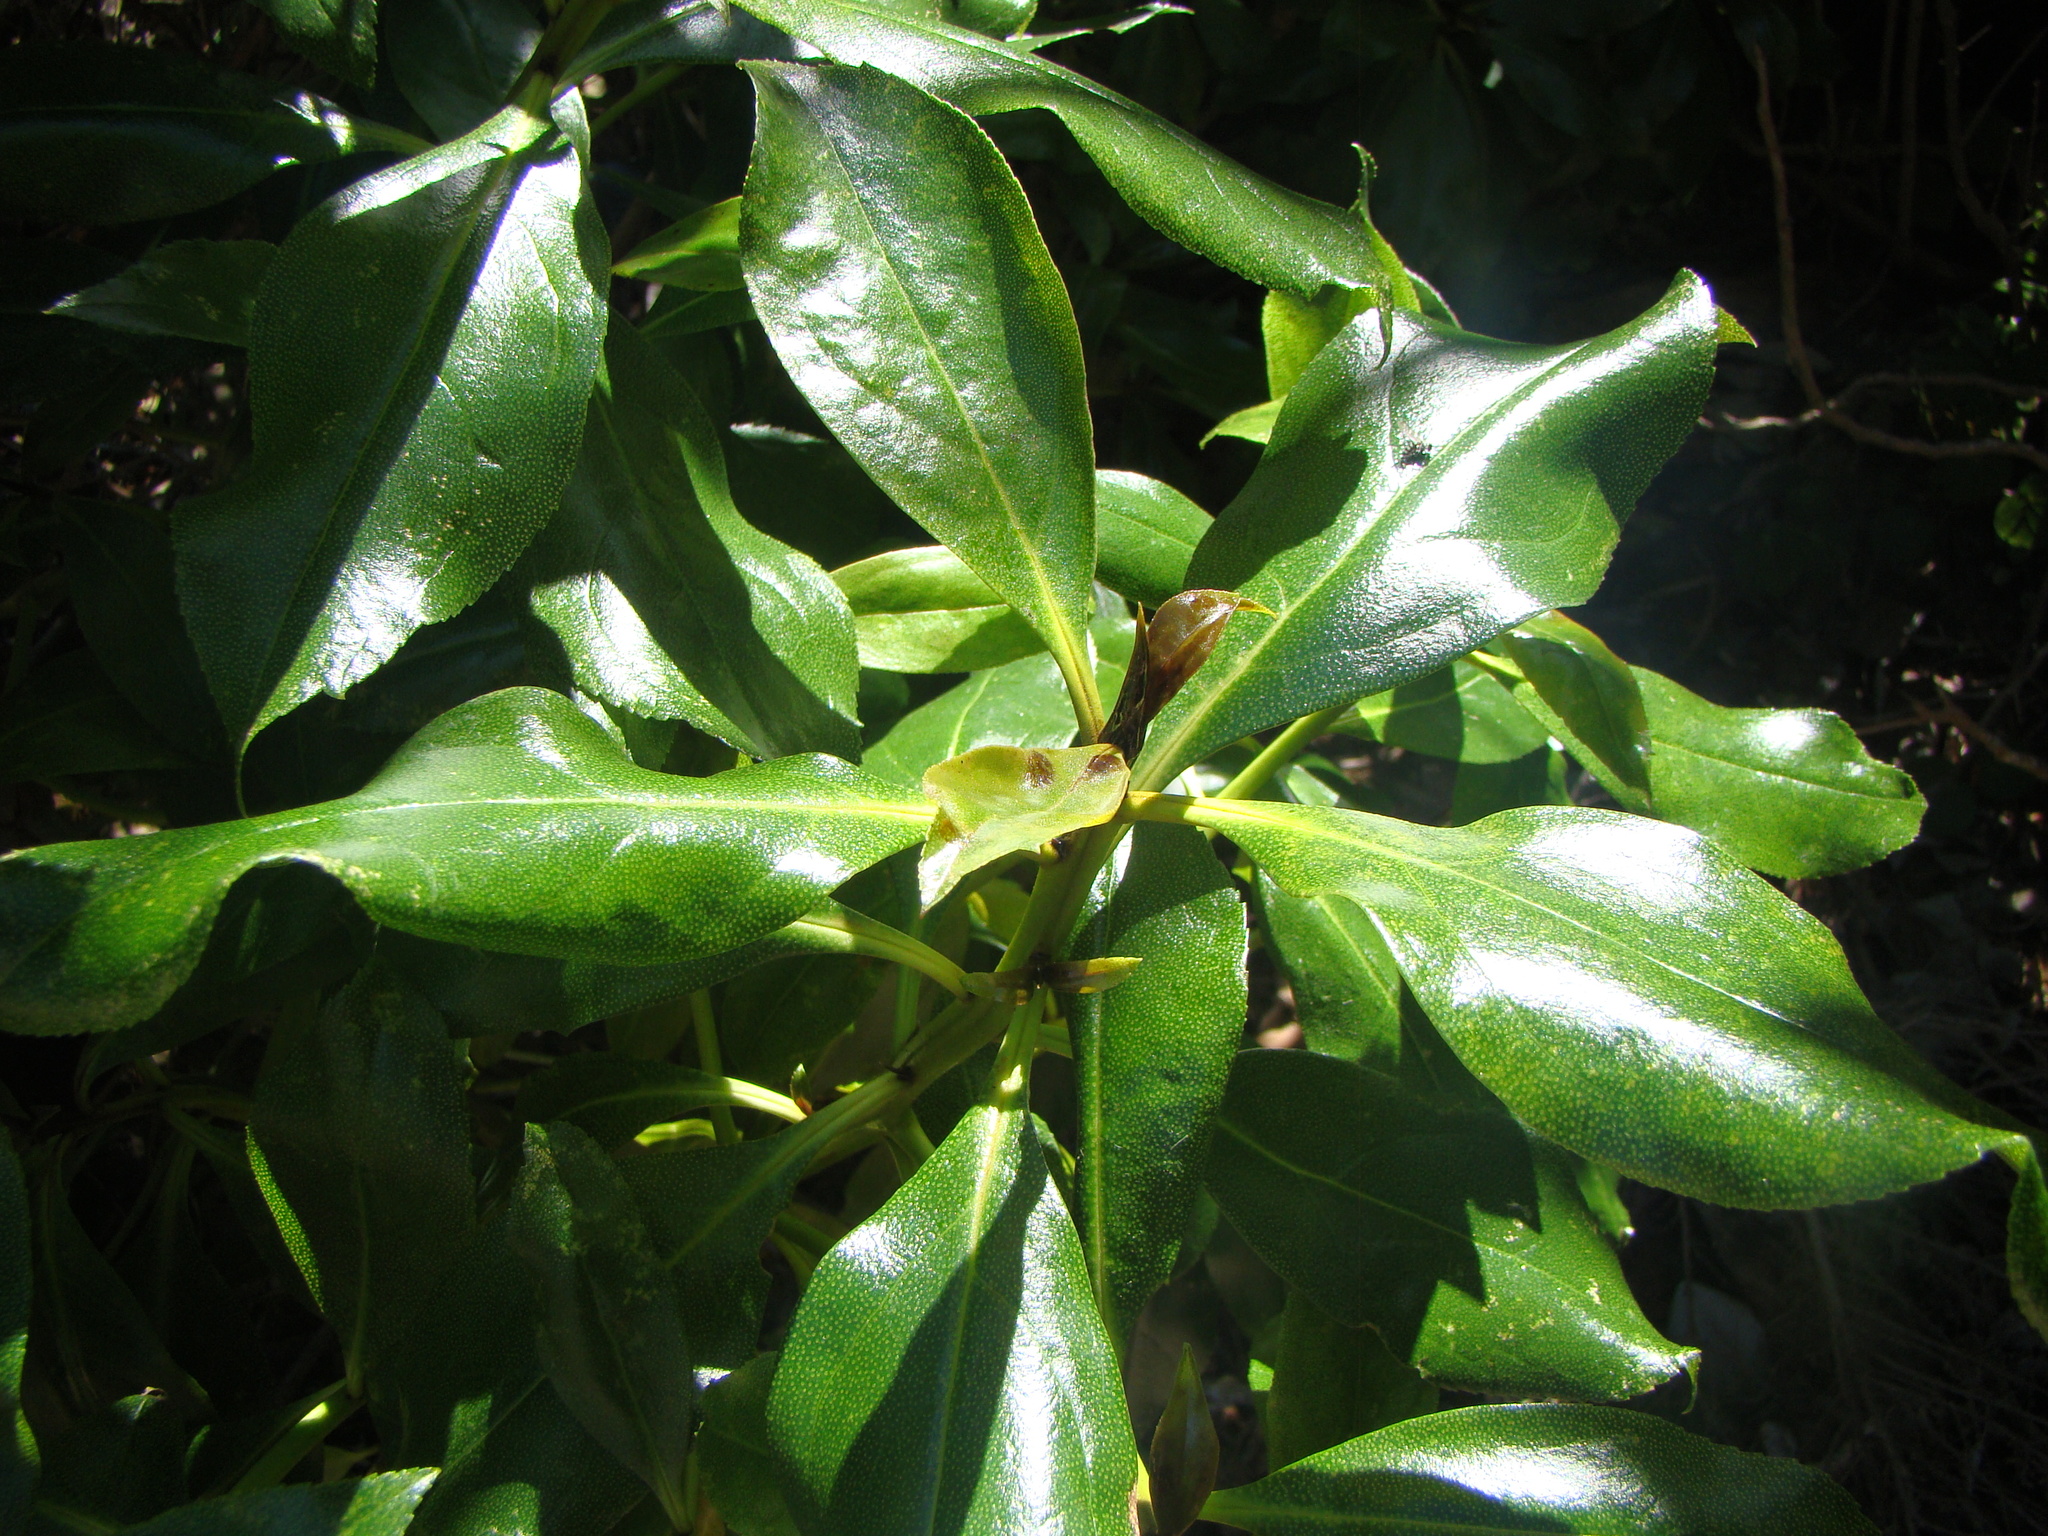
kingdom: Plantae
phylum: Tracheophyta
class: Magnoliopsida
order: Lamiales
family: Scrophulariaceae
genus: Myoporum
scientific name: Myoporum laetum
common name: Ngaio tree
